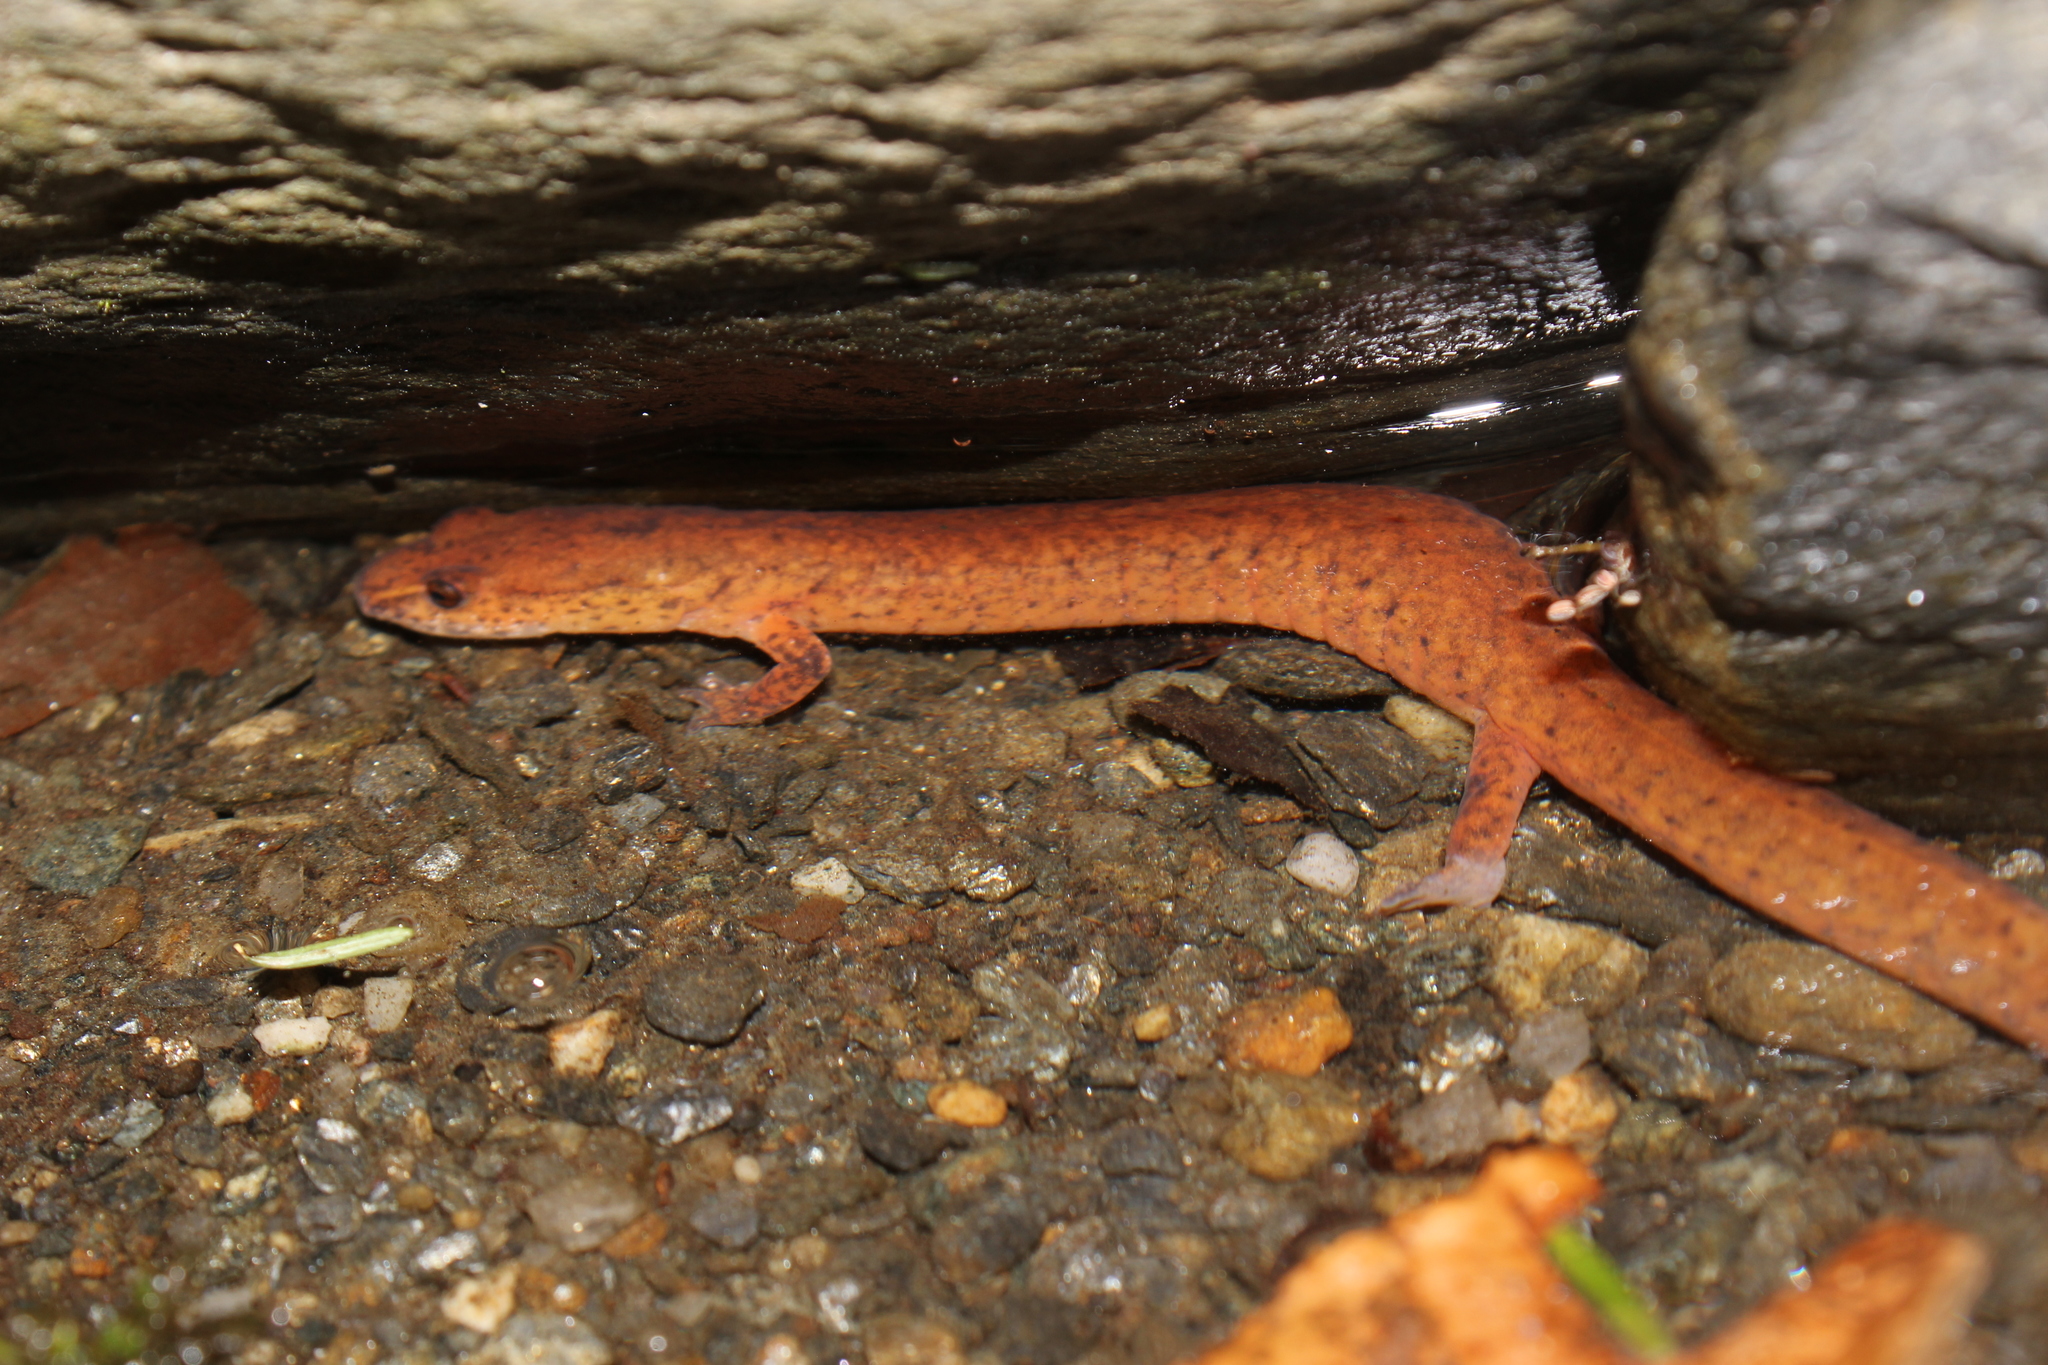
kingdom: Animalia
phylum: Chordata
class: Amphibia
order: Caudata
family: Plethodontidae
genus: Gyrinophilus
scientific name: Gyrinophilus porphyriticus
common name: Spring salamander
